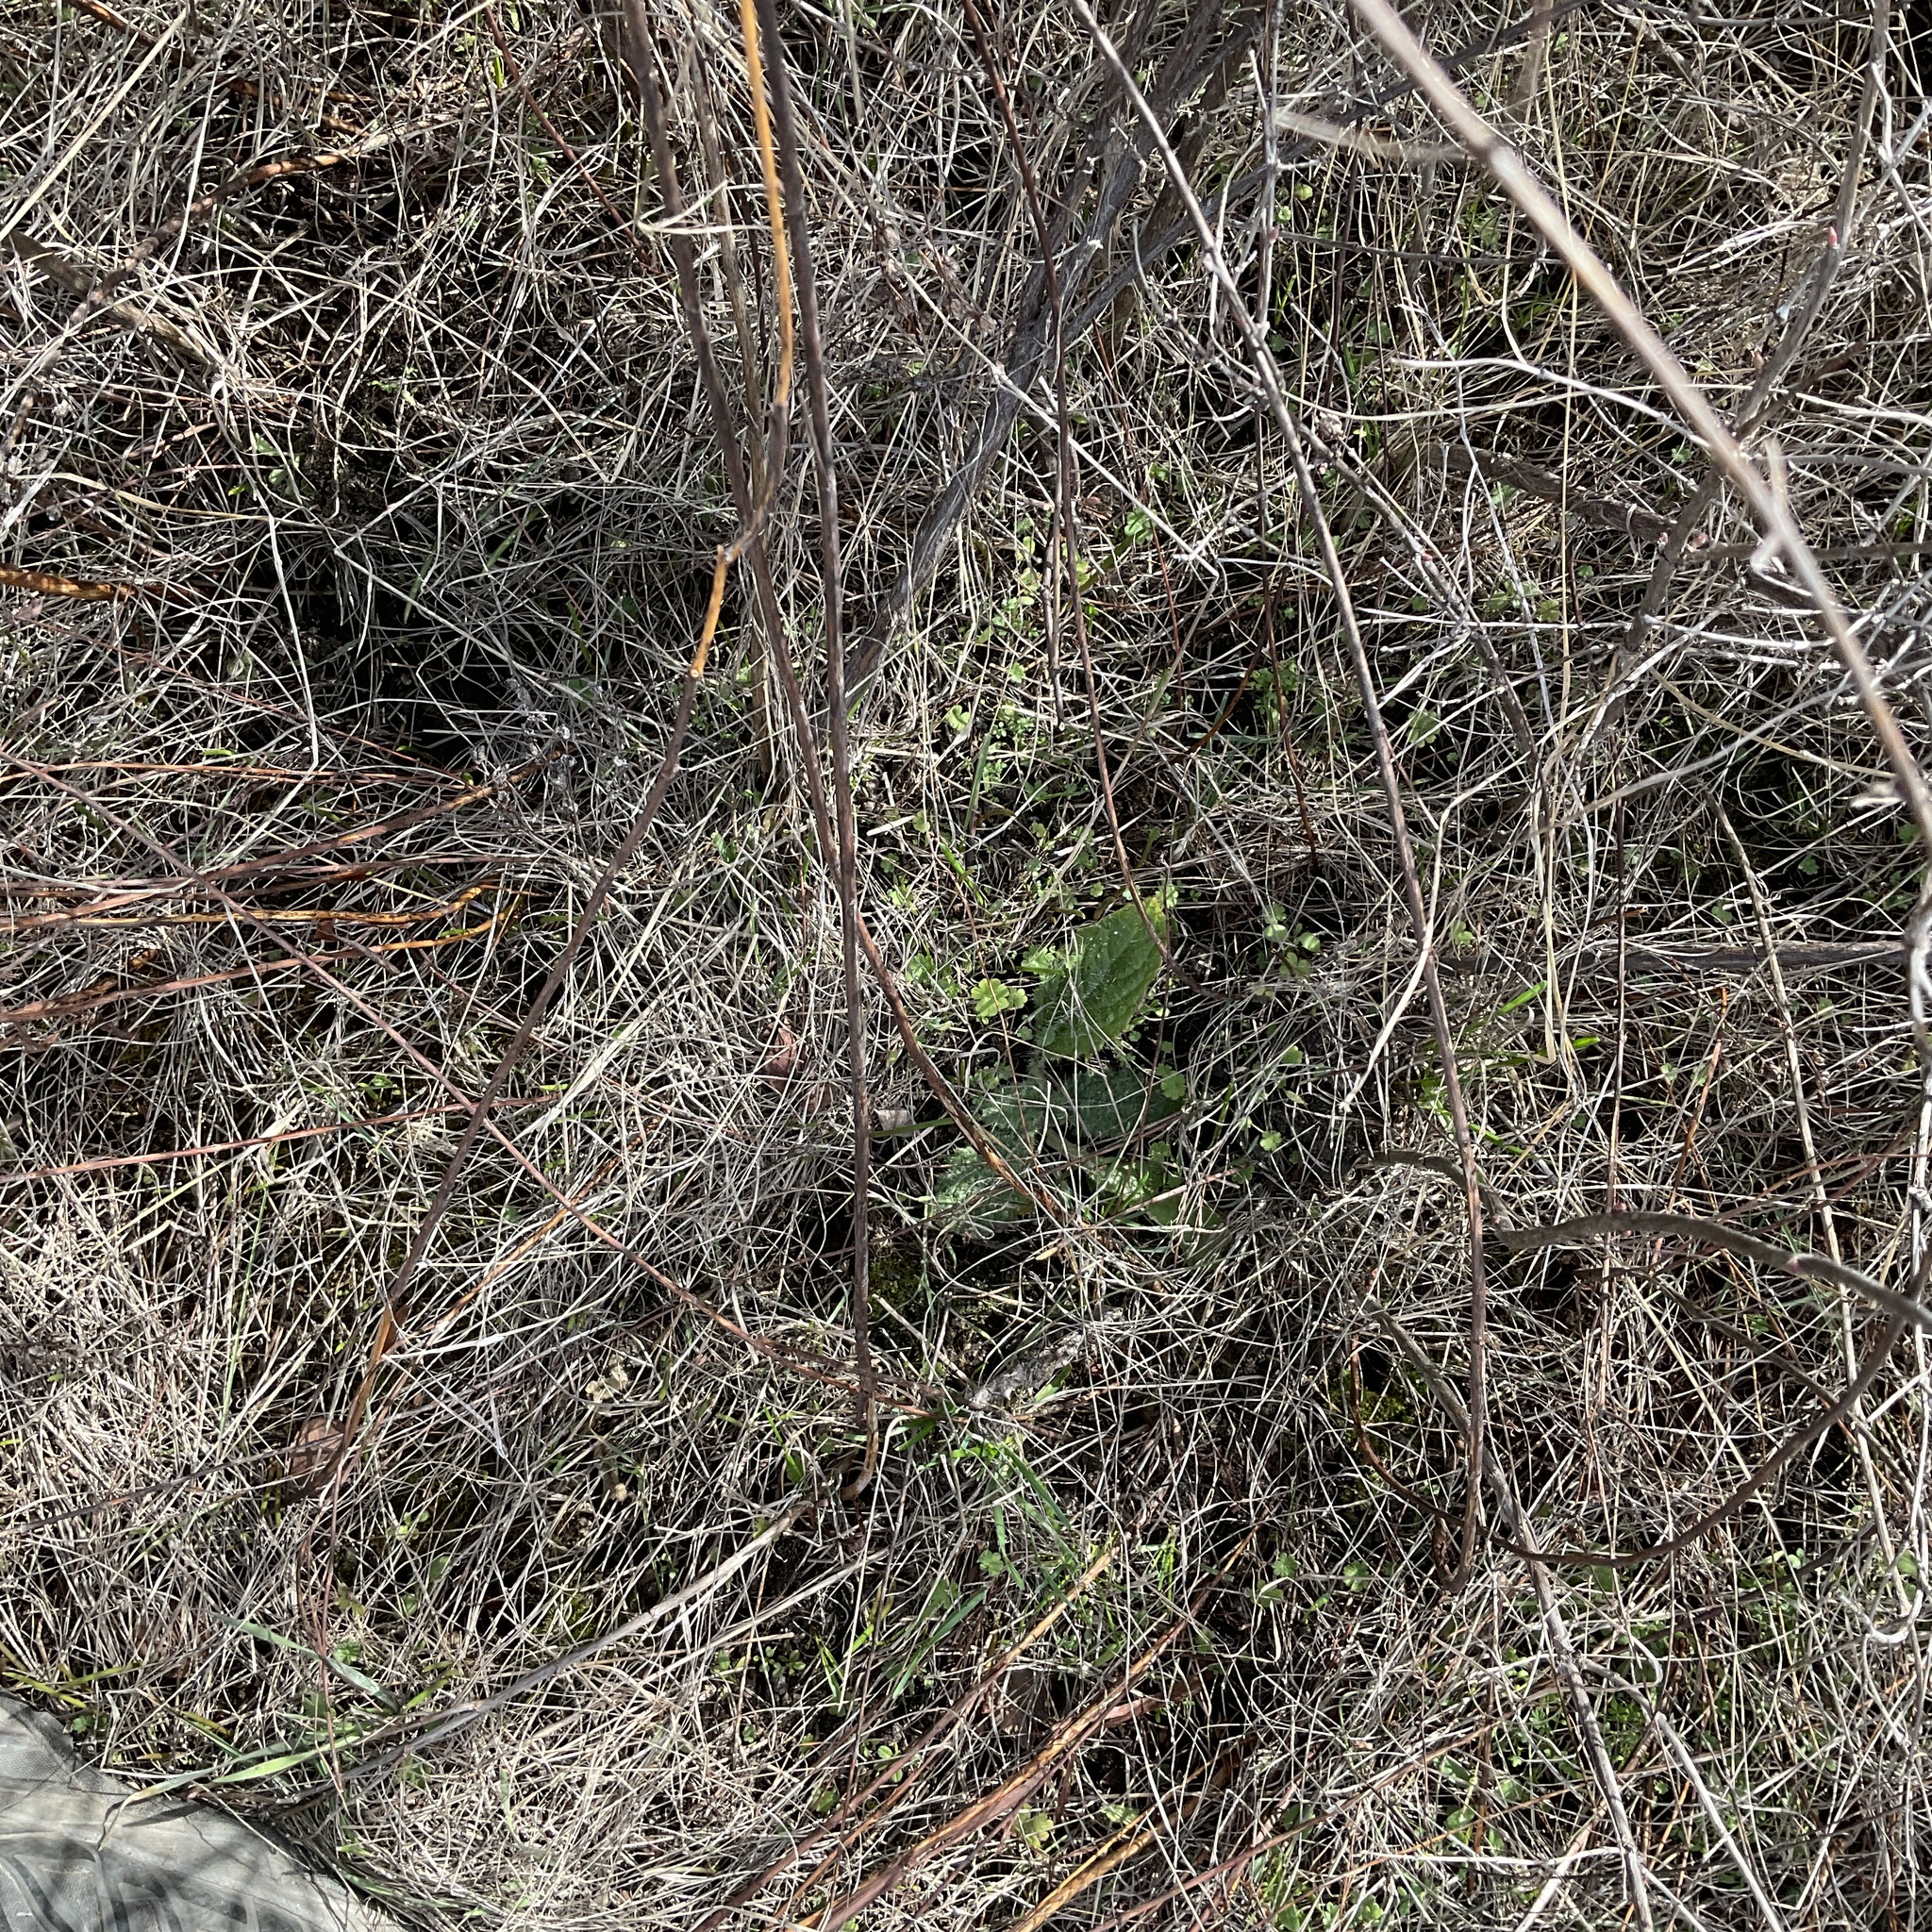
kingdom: Plantae
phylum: Tracheophyta
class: Magnoliopsida
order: Asterales
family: Asteraceae
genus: Cirsium
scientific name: Cirsium vulgare
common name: Bull thistle
